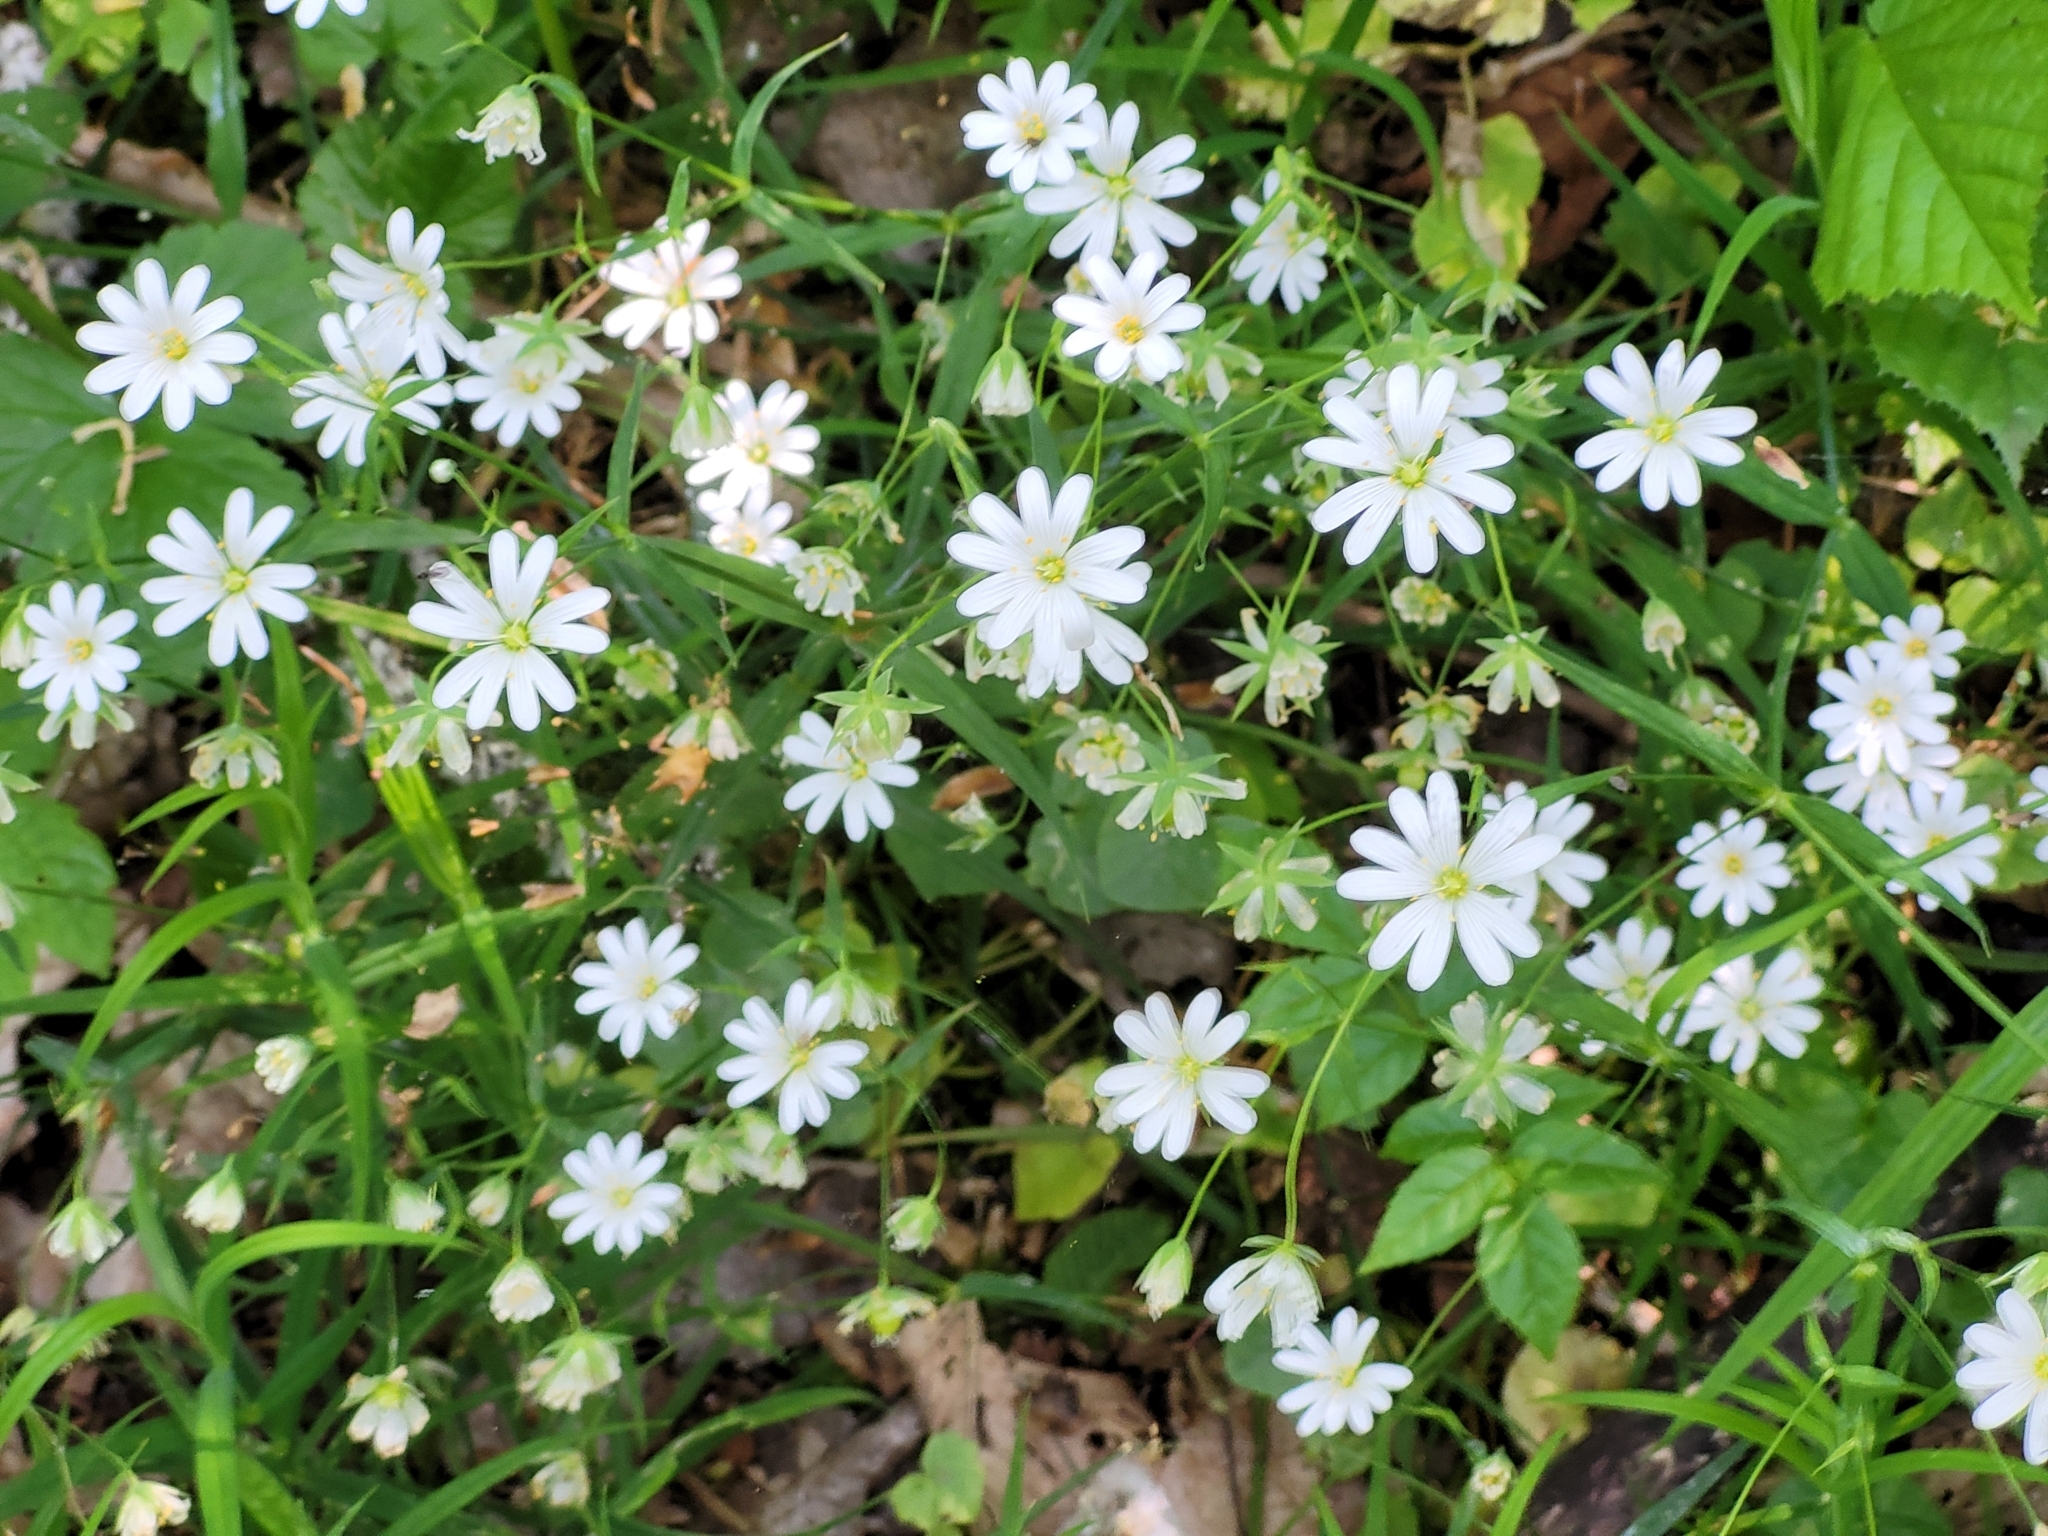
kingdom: Plantae
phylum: Tracheophyta
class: Magnoliopsida
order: Caryophyllales
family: Caryophyllaceae
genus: Rabelera
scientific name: Rabelera holostea
